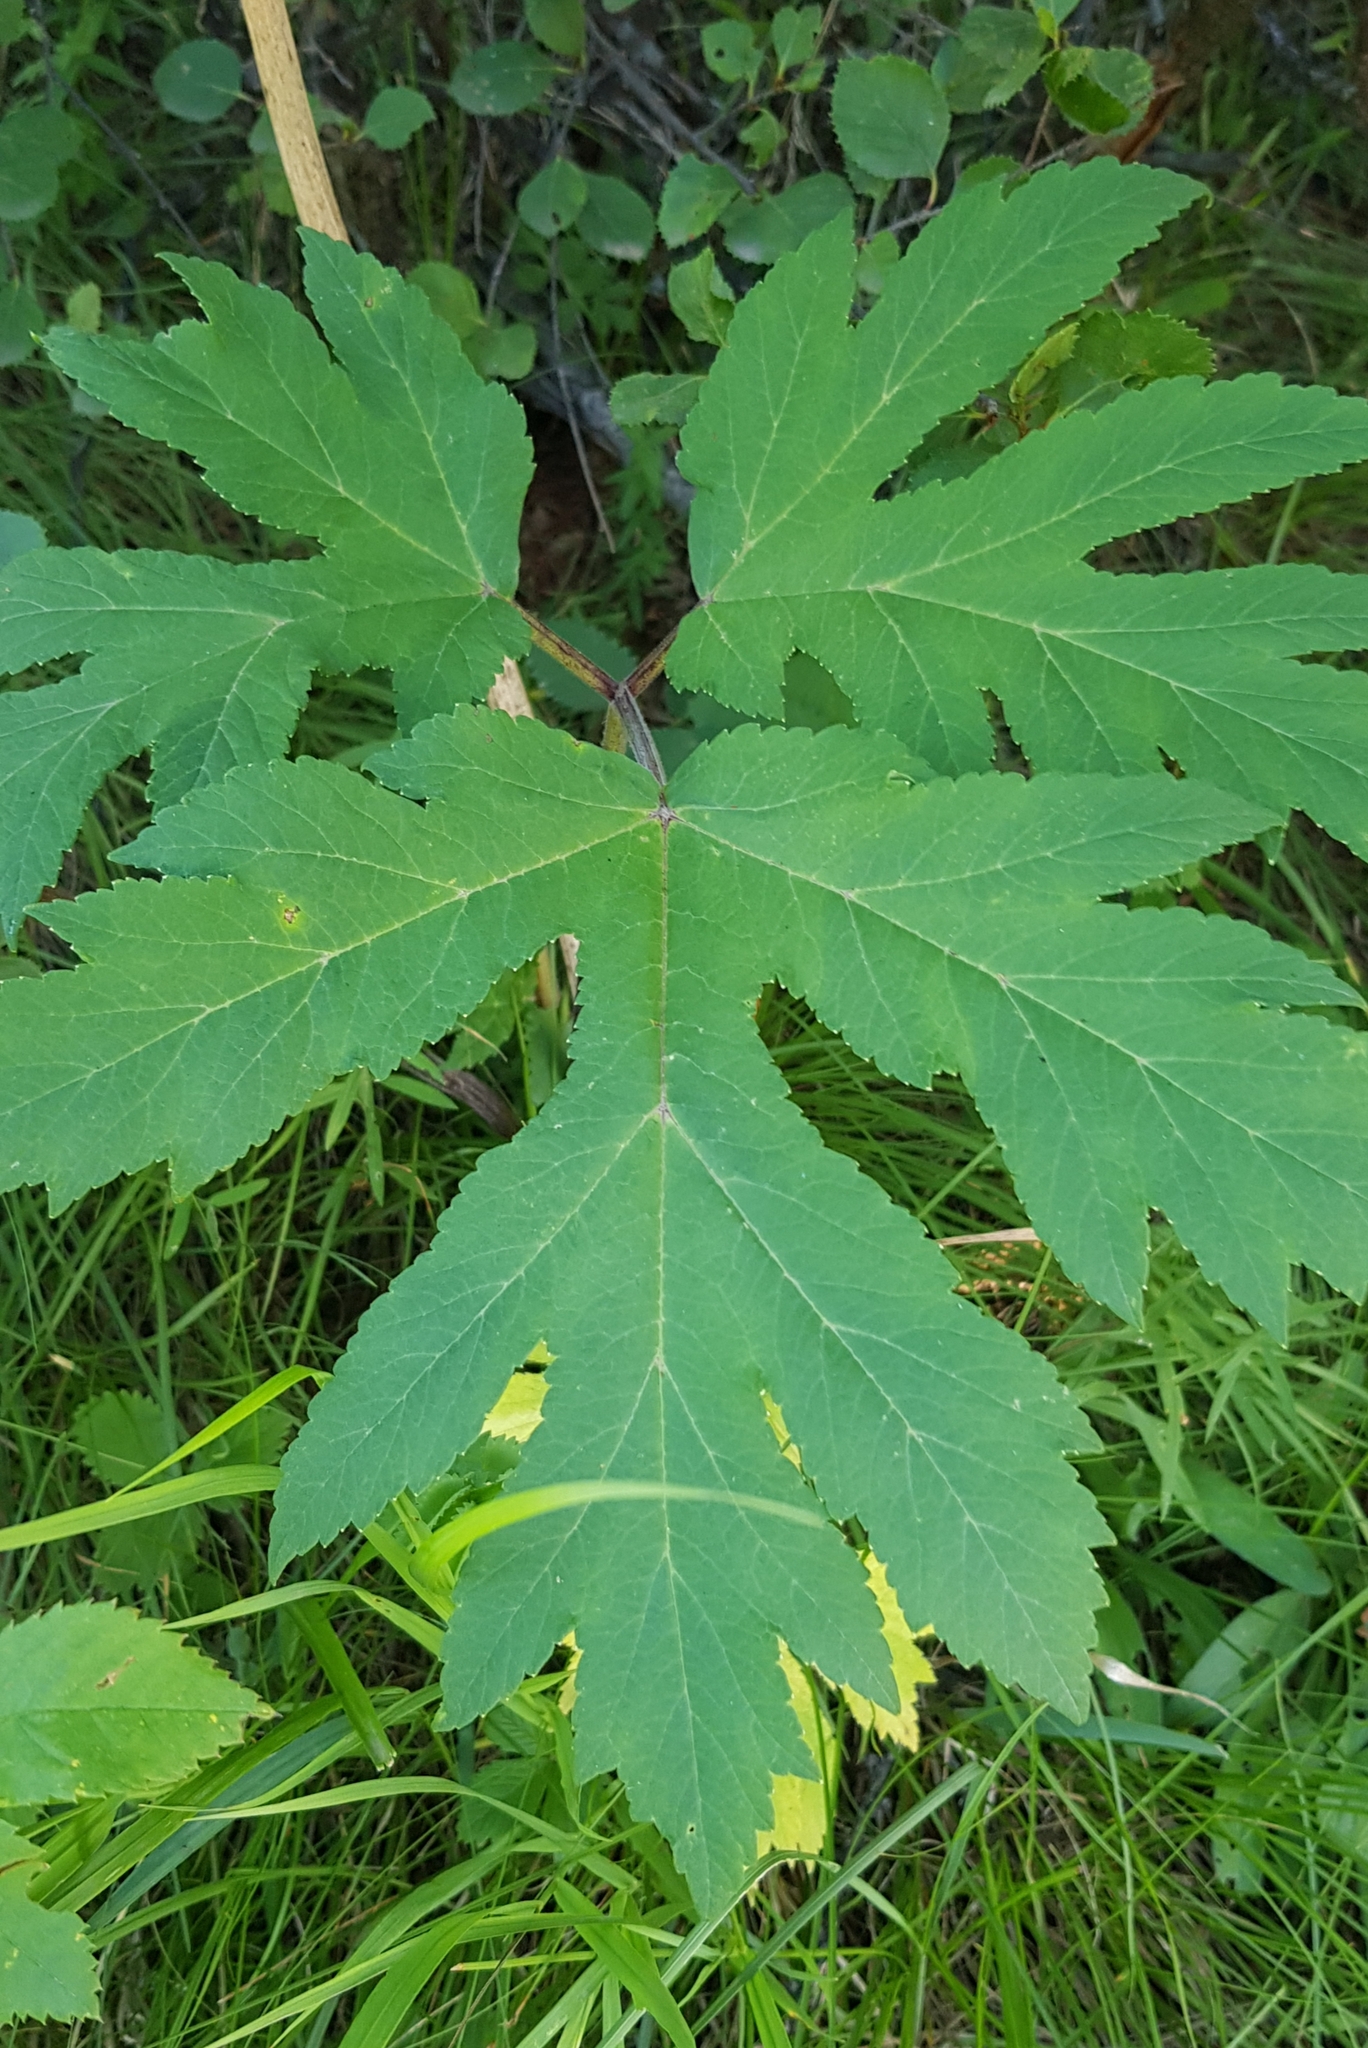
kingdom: Plantae
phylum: Tracheophyta
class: Magnoliopsida
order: Apiales
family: Apiaceae
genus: Heracleum
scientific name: Heracleum dissectum
